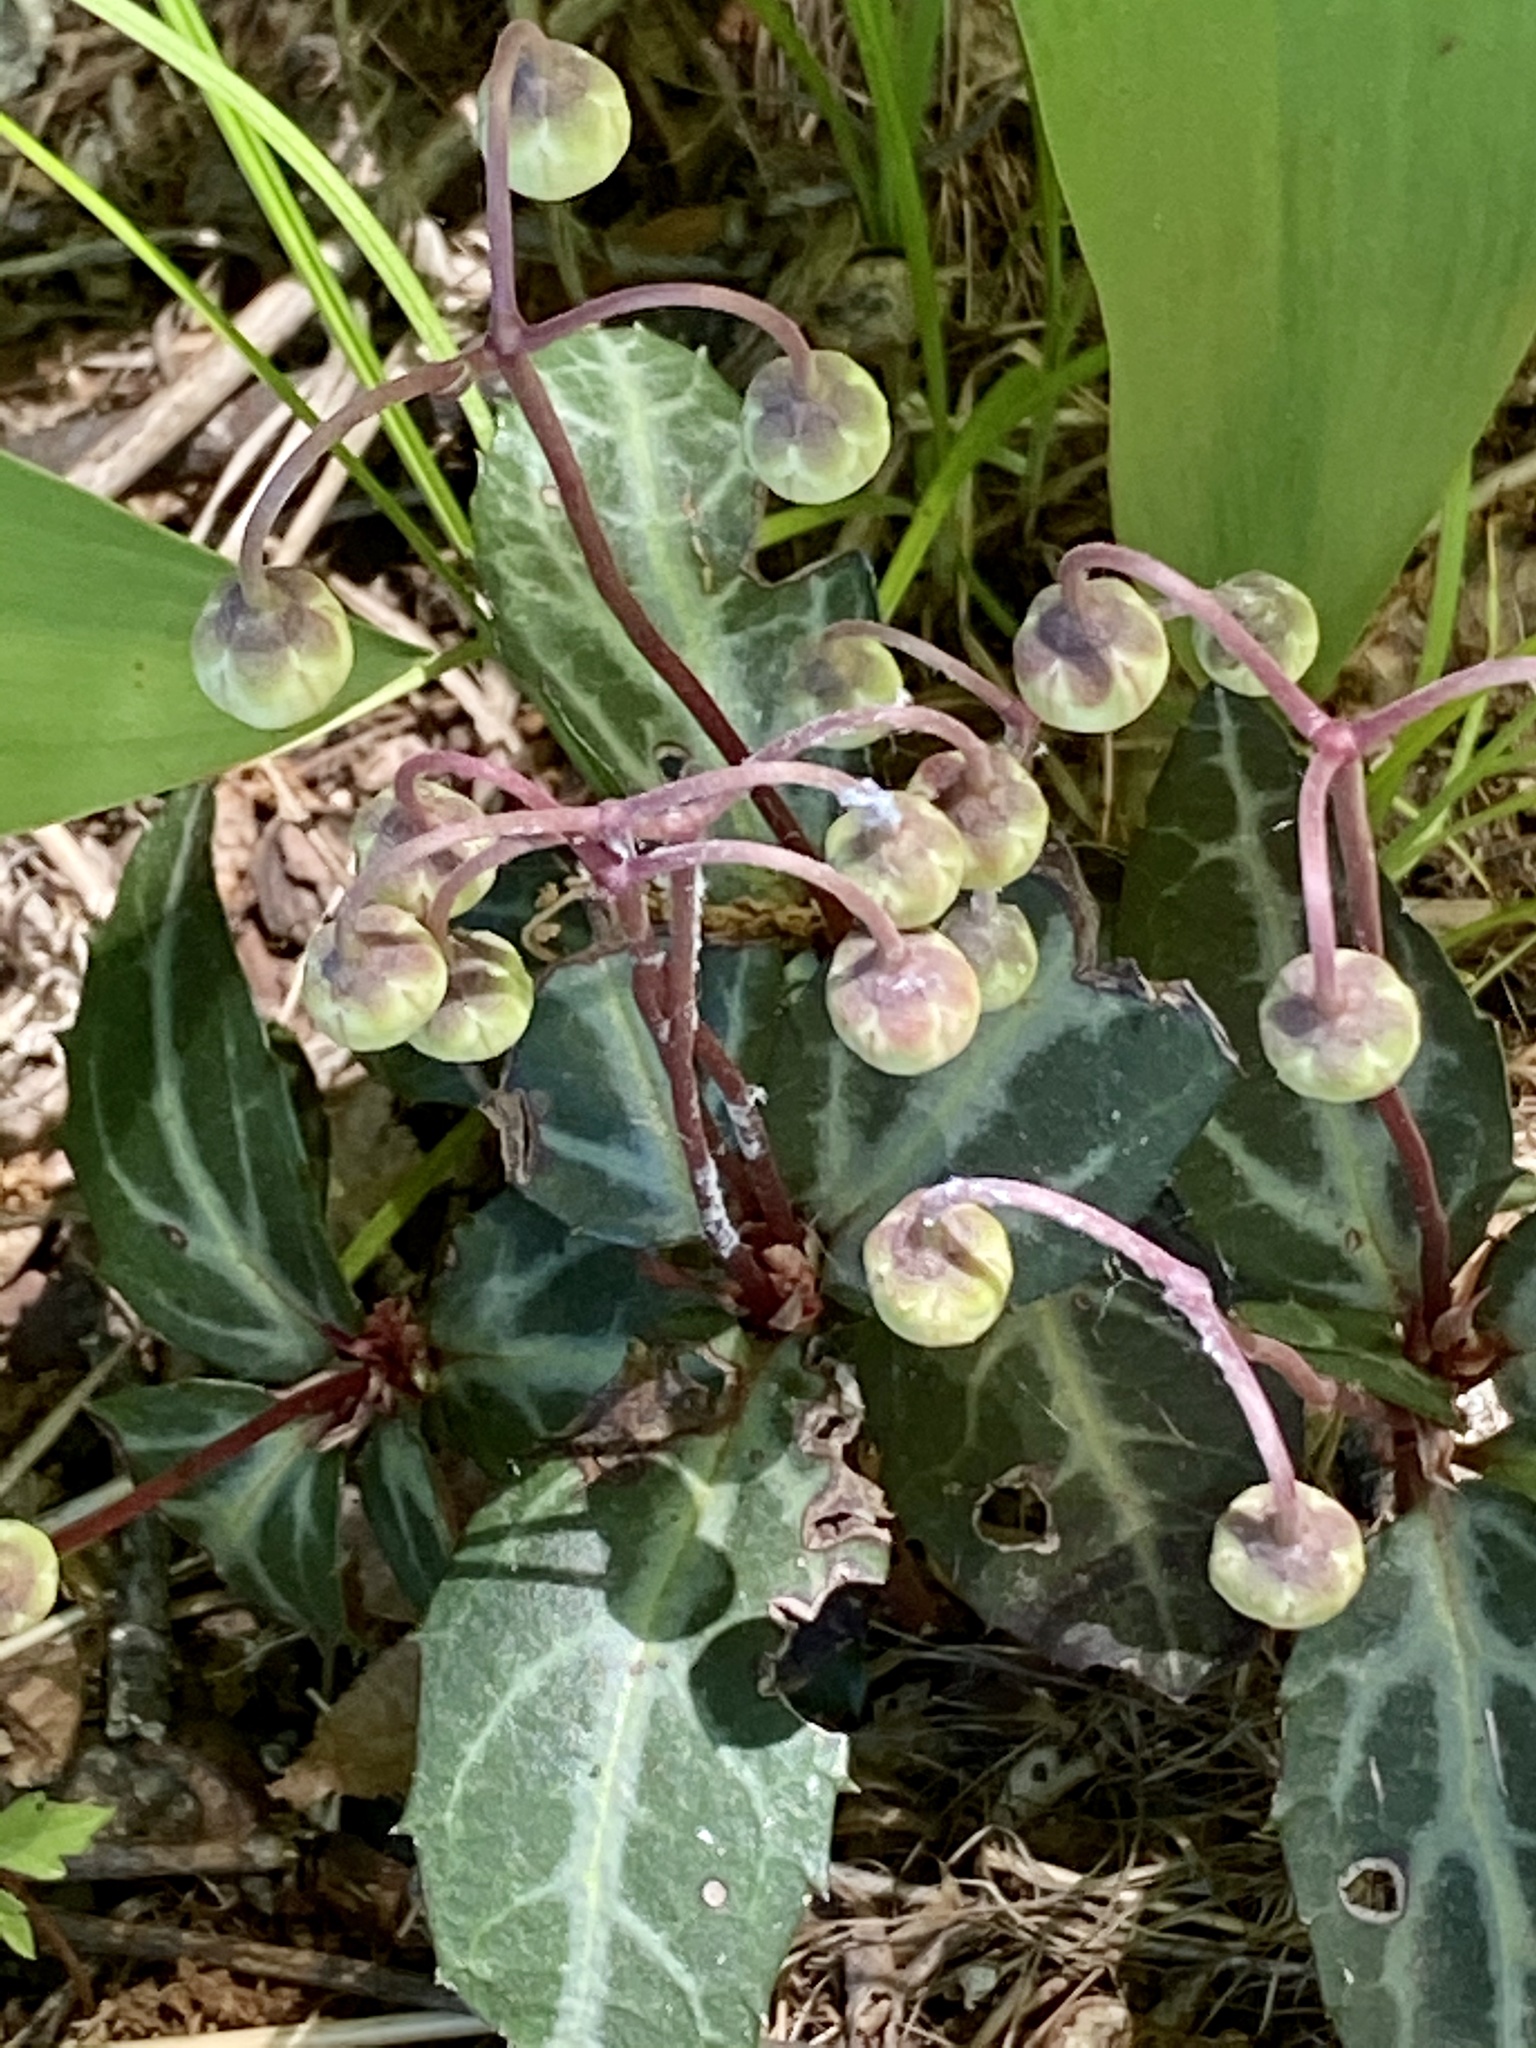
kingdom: Plantae
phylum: Tracheophyta
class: Magnoliopsida
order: Ericales
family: Ericaceae
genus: Chimaphila
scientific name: Chimaphila maculata
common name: Spotted pipsissewa
